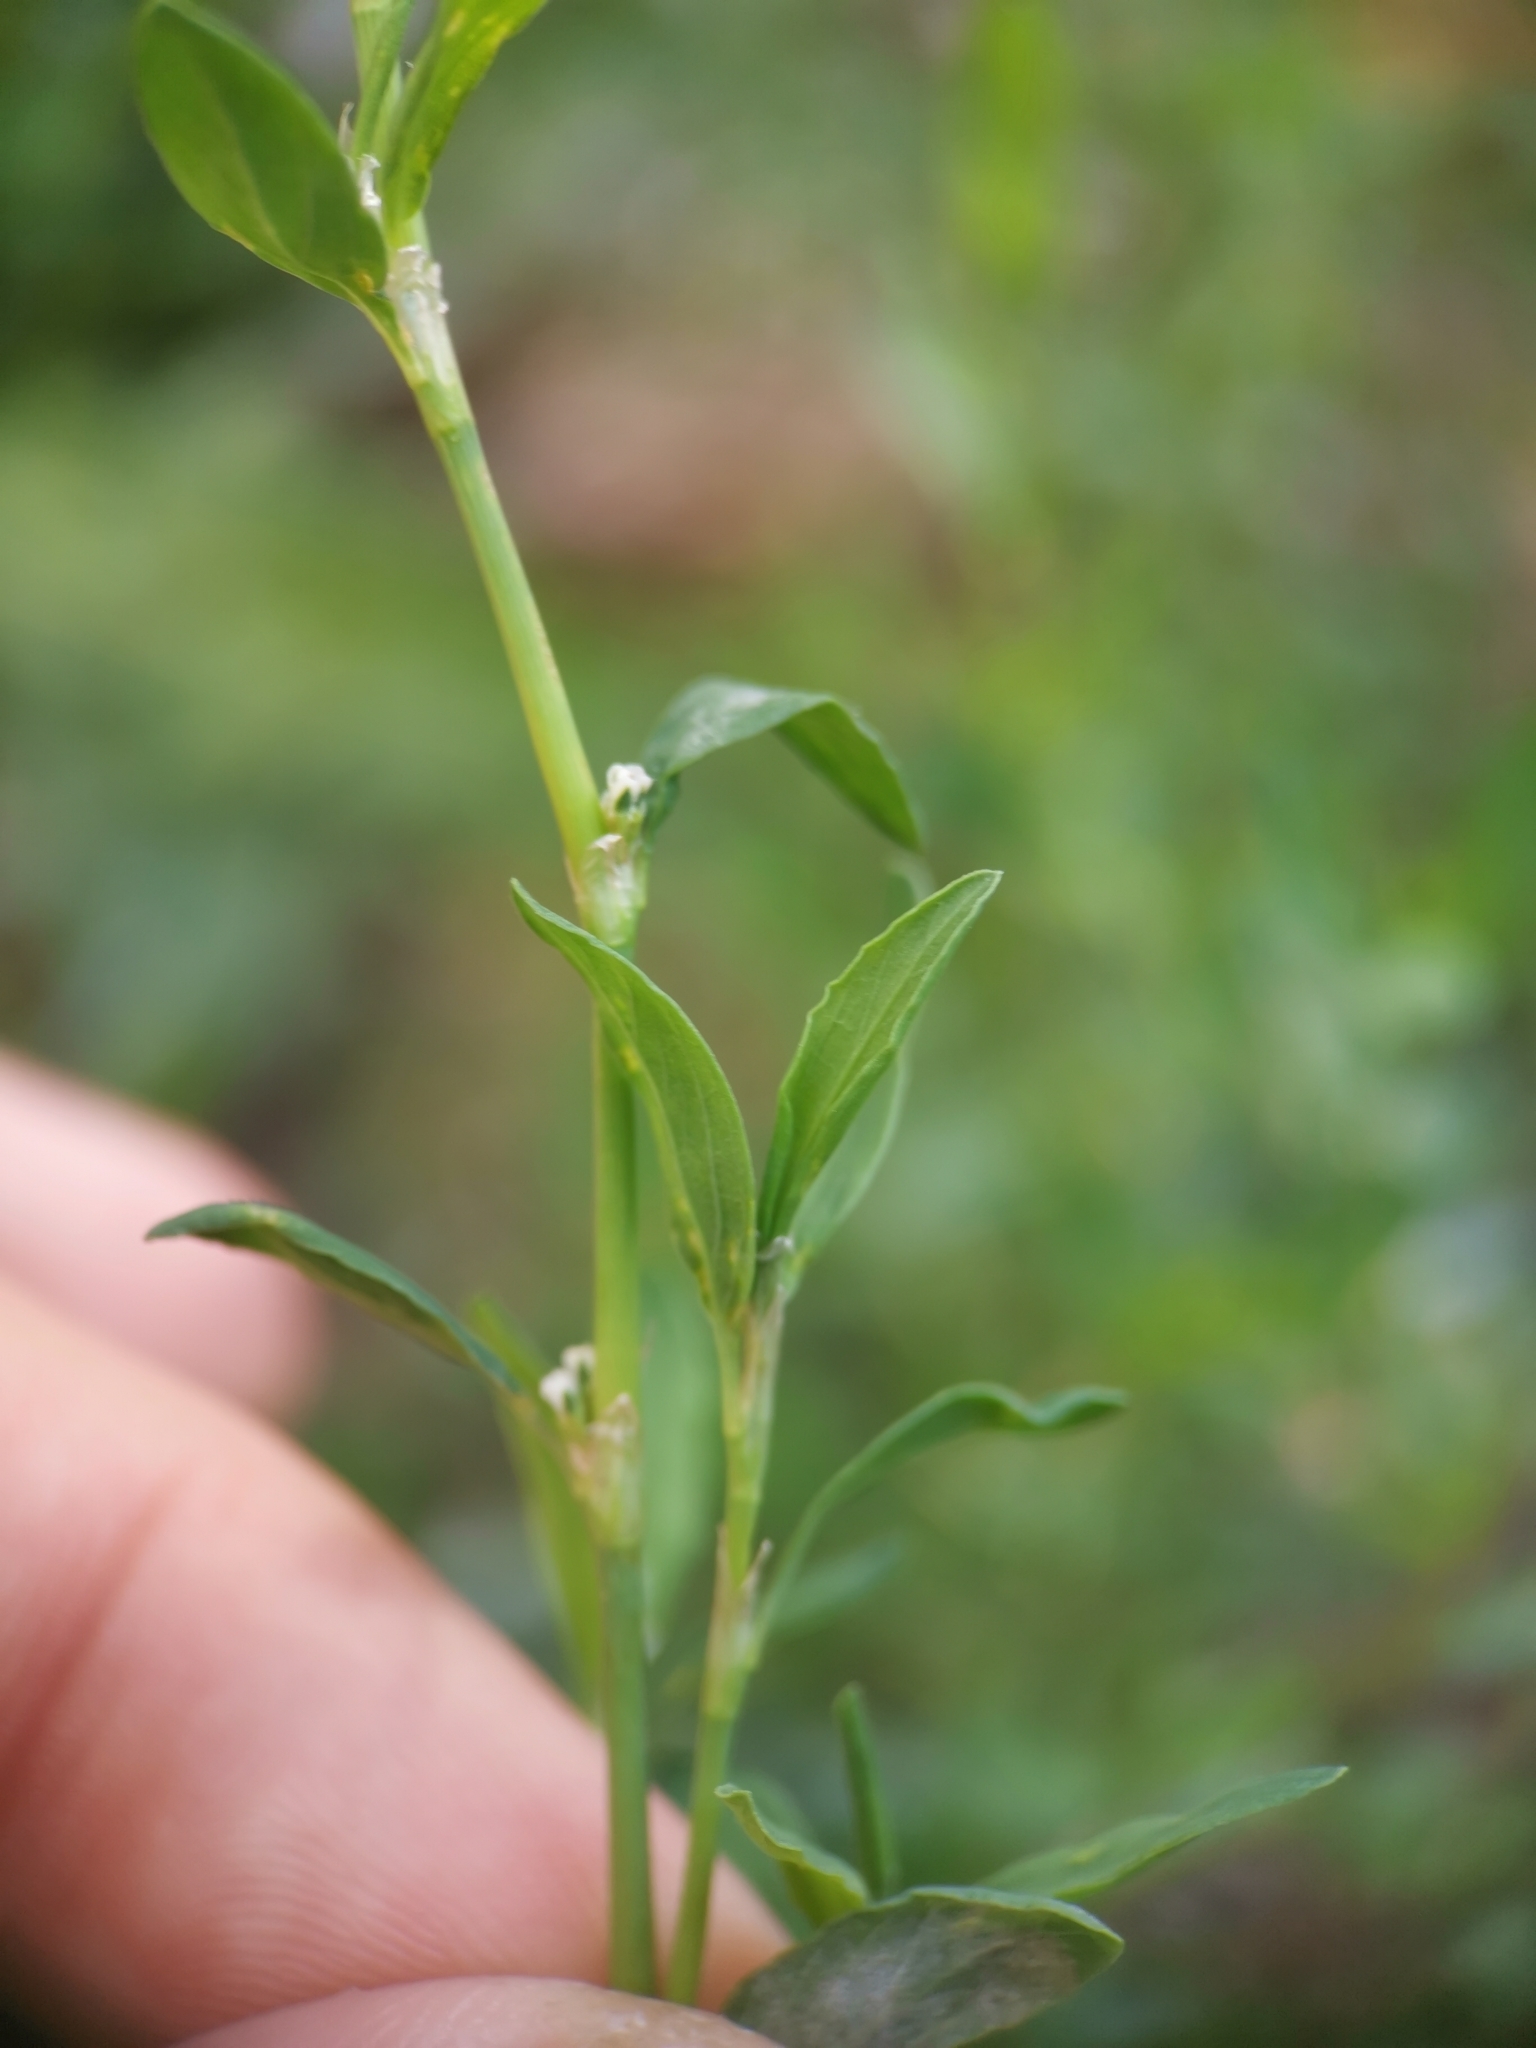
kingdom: Plantae
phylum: Tracheophyta
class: Magnoliopsida
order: Caryophyllales
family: Polygonaceae
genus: Polygonum
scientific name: Polygonum aviculare
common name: Prostrate knotweed
